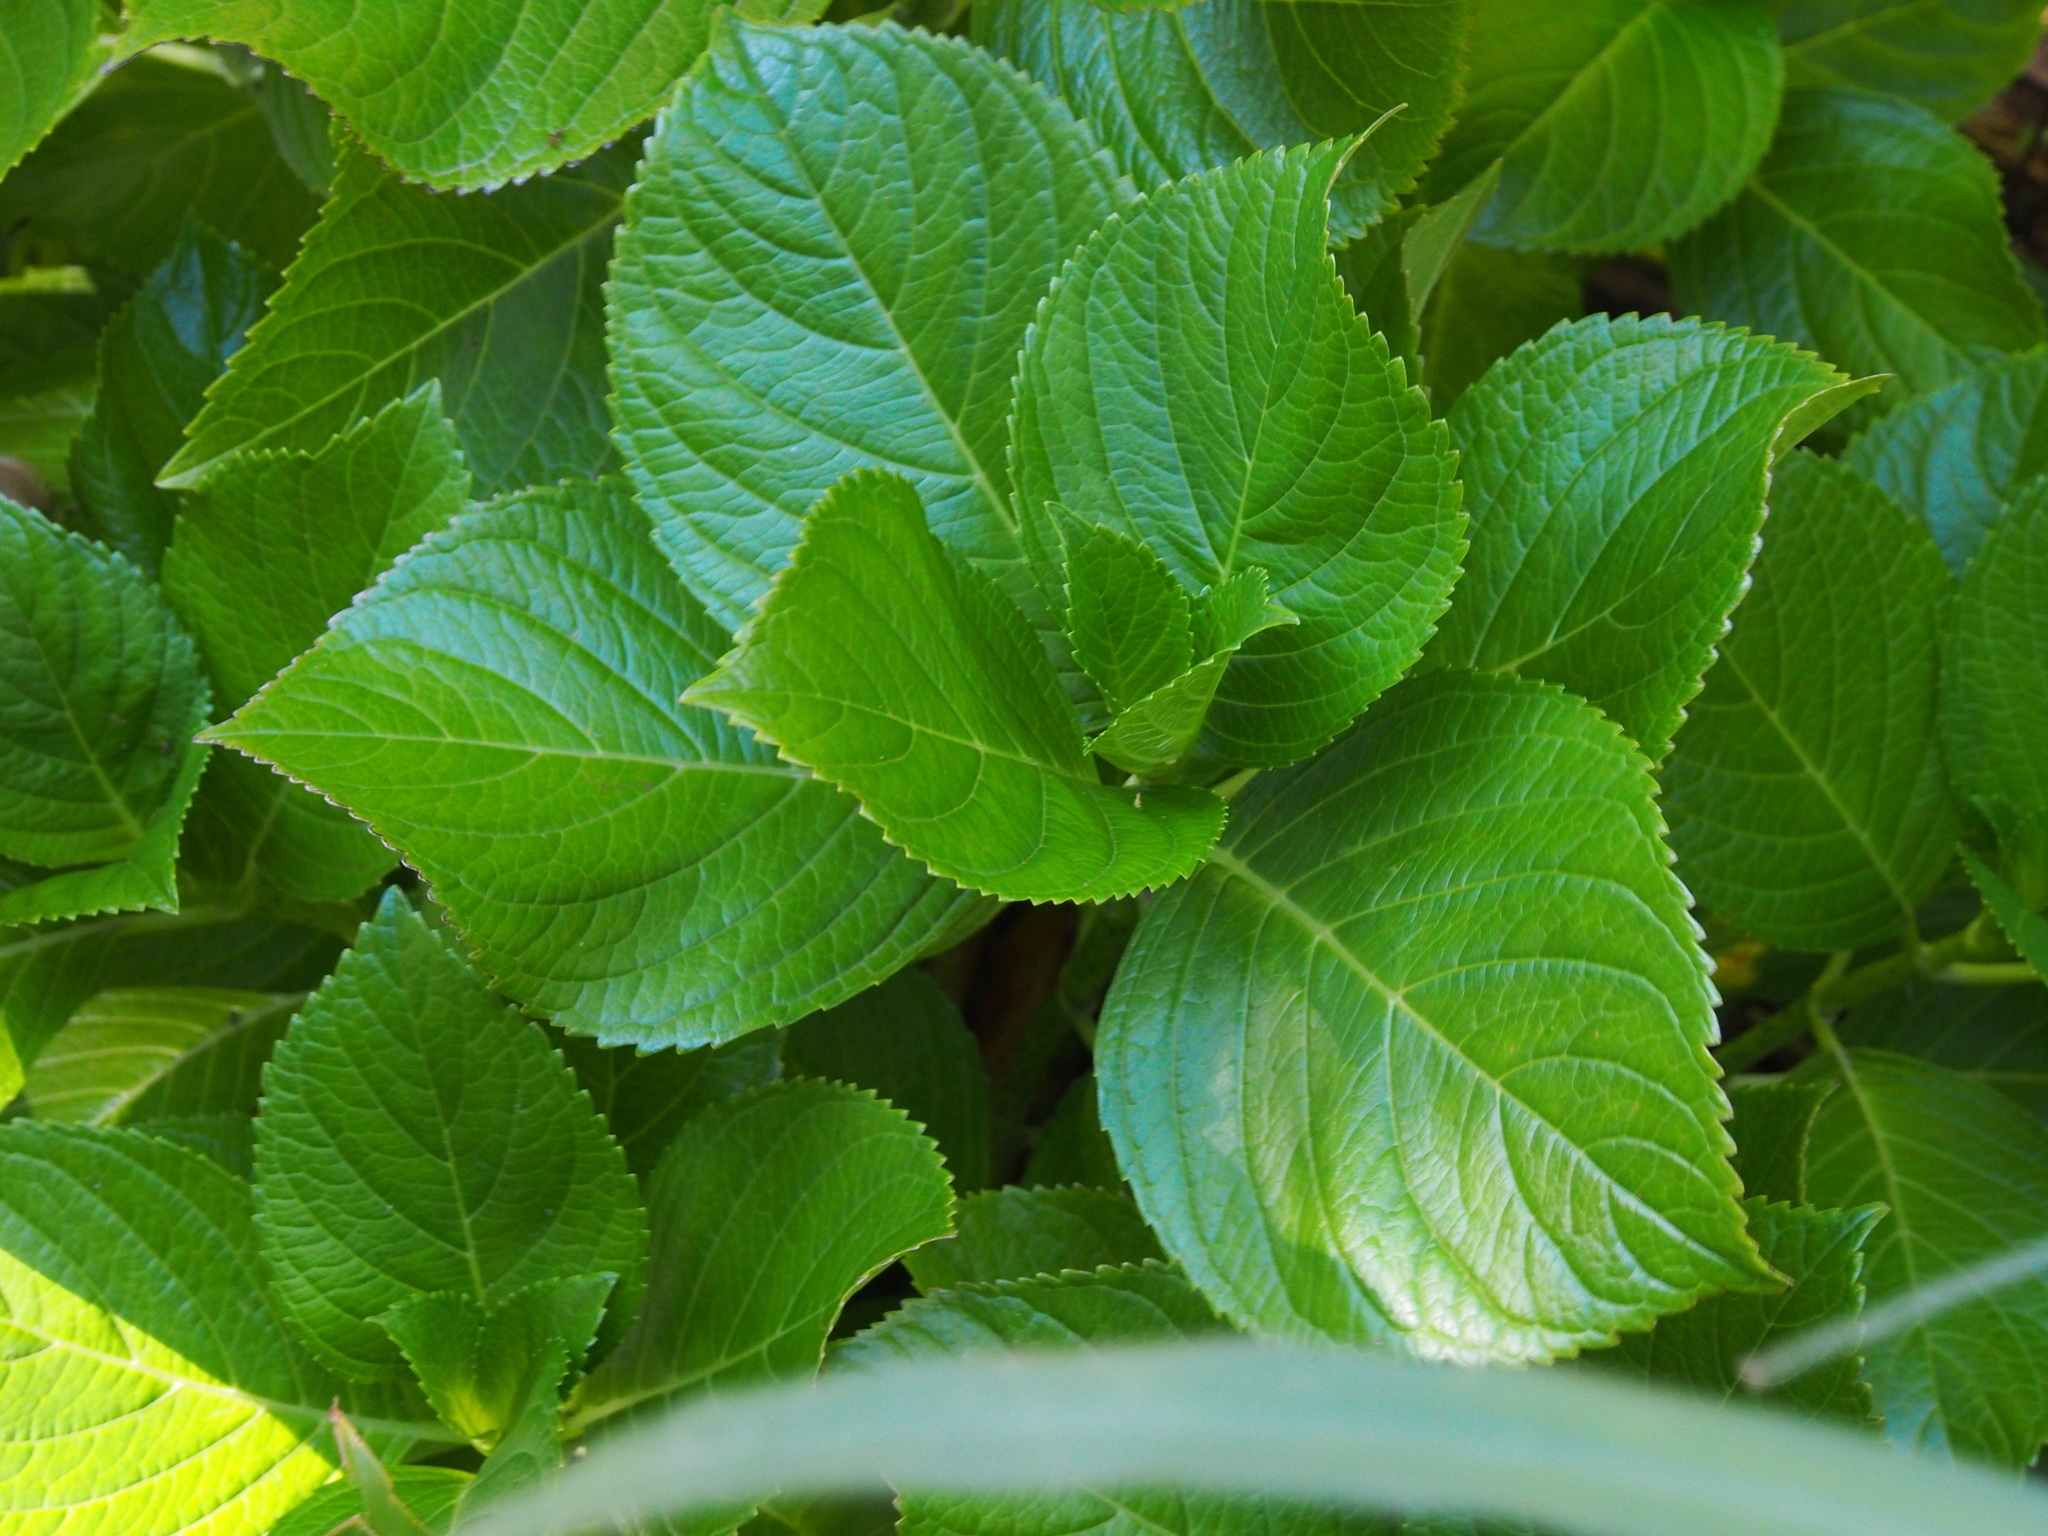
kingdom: Plantae
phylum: Tracheophyta
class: Magnoliopsida
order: Cornales
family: Hydrangeaceae
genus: Hydrangea
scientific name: Hydrangea macrophylla
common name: Hydrangea
